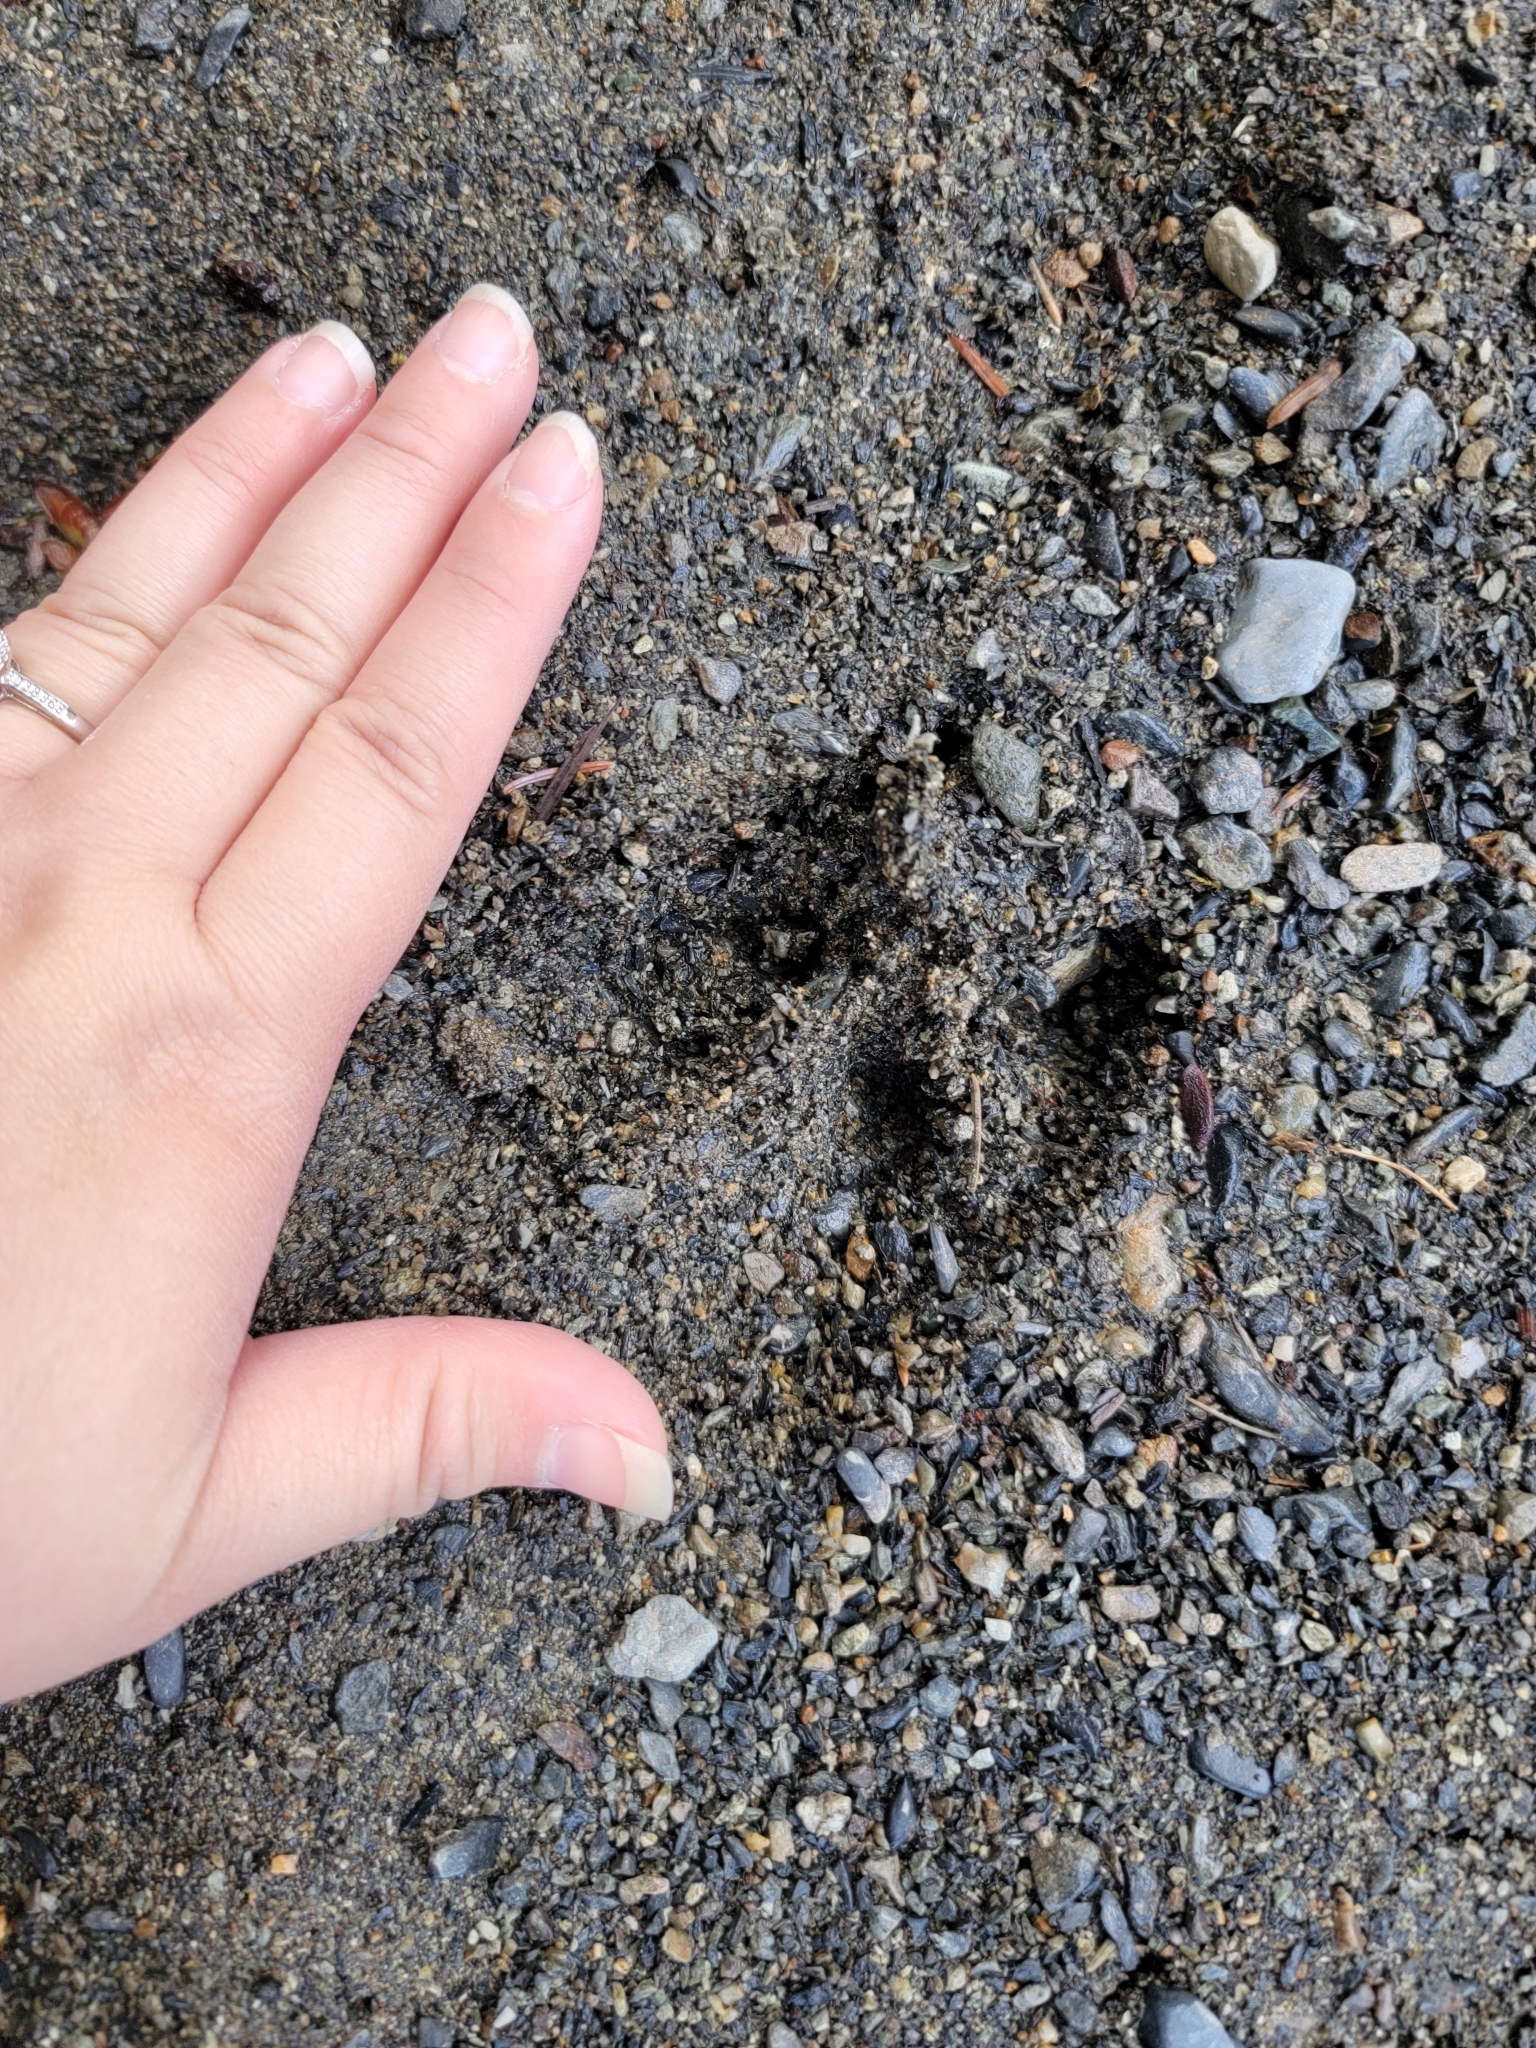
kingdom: Animalia
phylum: Chordata
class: Mammalia
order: Artiodactyla
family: Cervidae
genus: Odocoileus
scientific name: Odocoileus hemionus
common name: Mule deer
